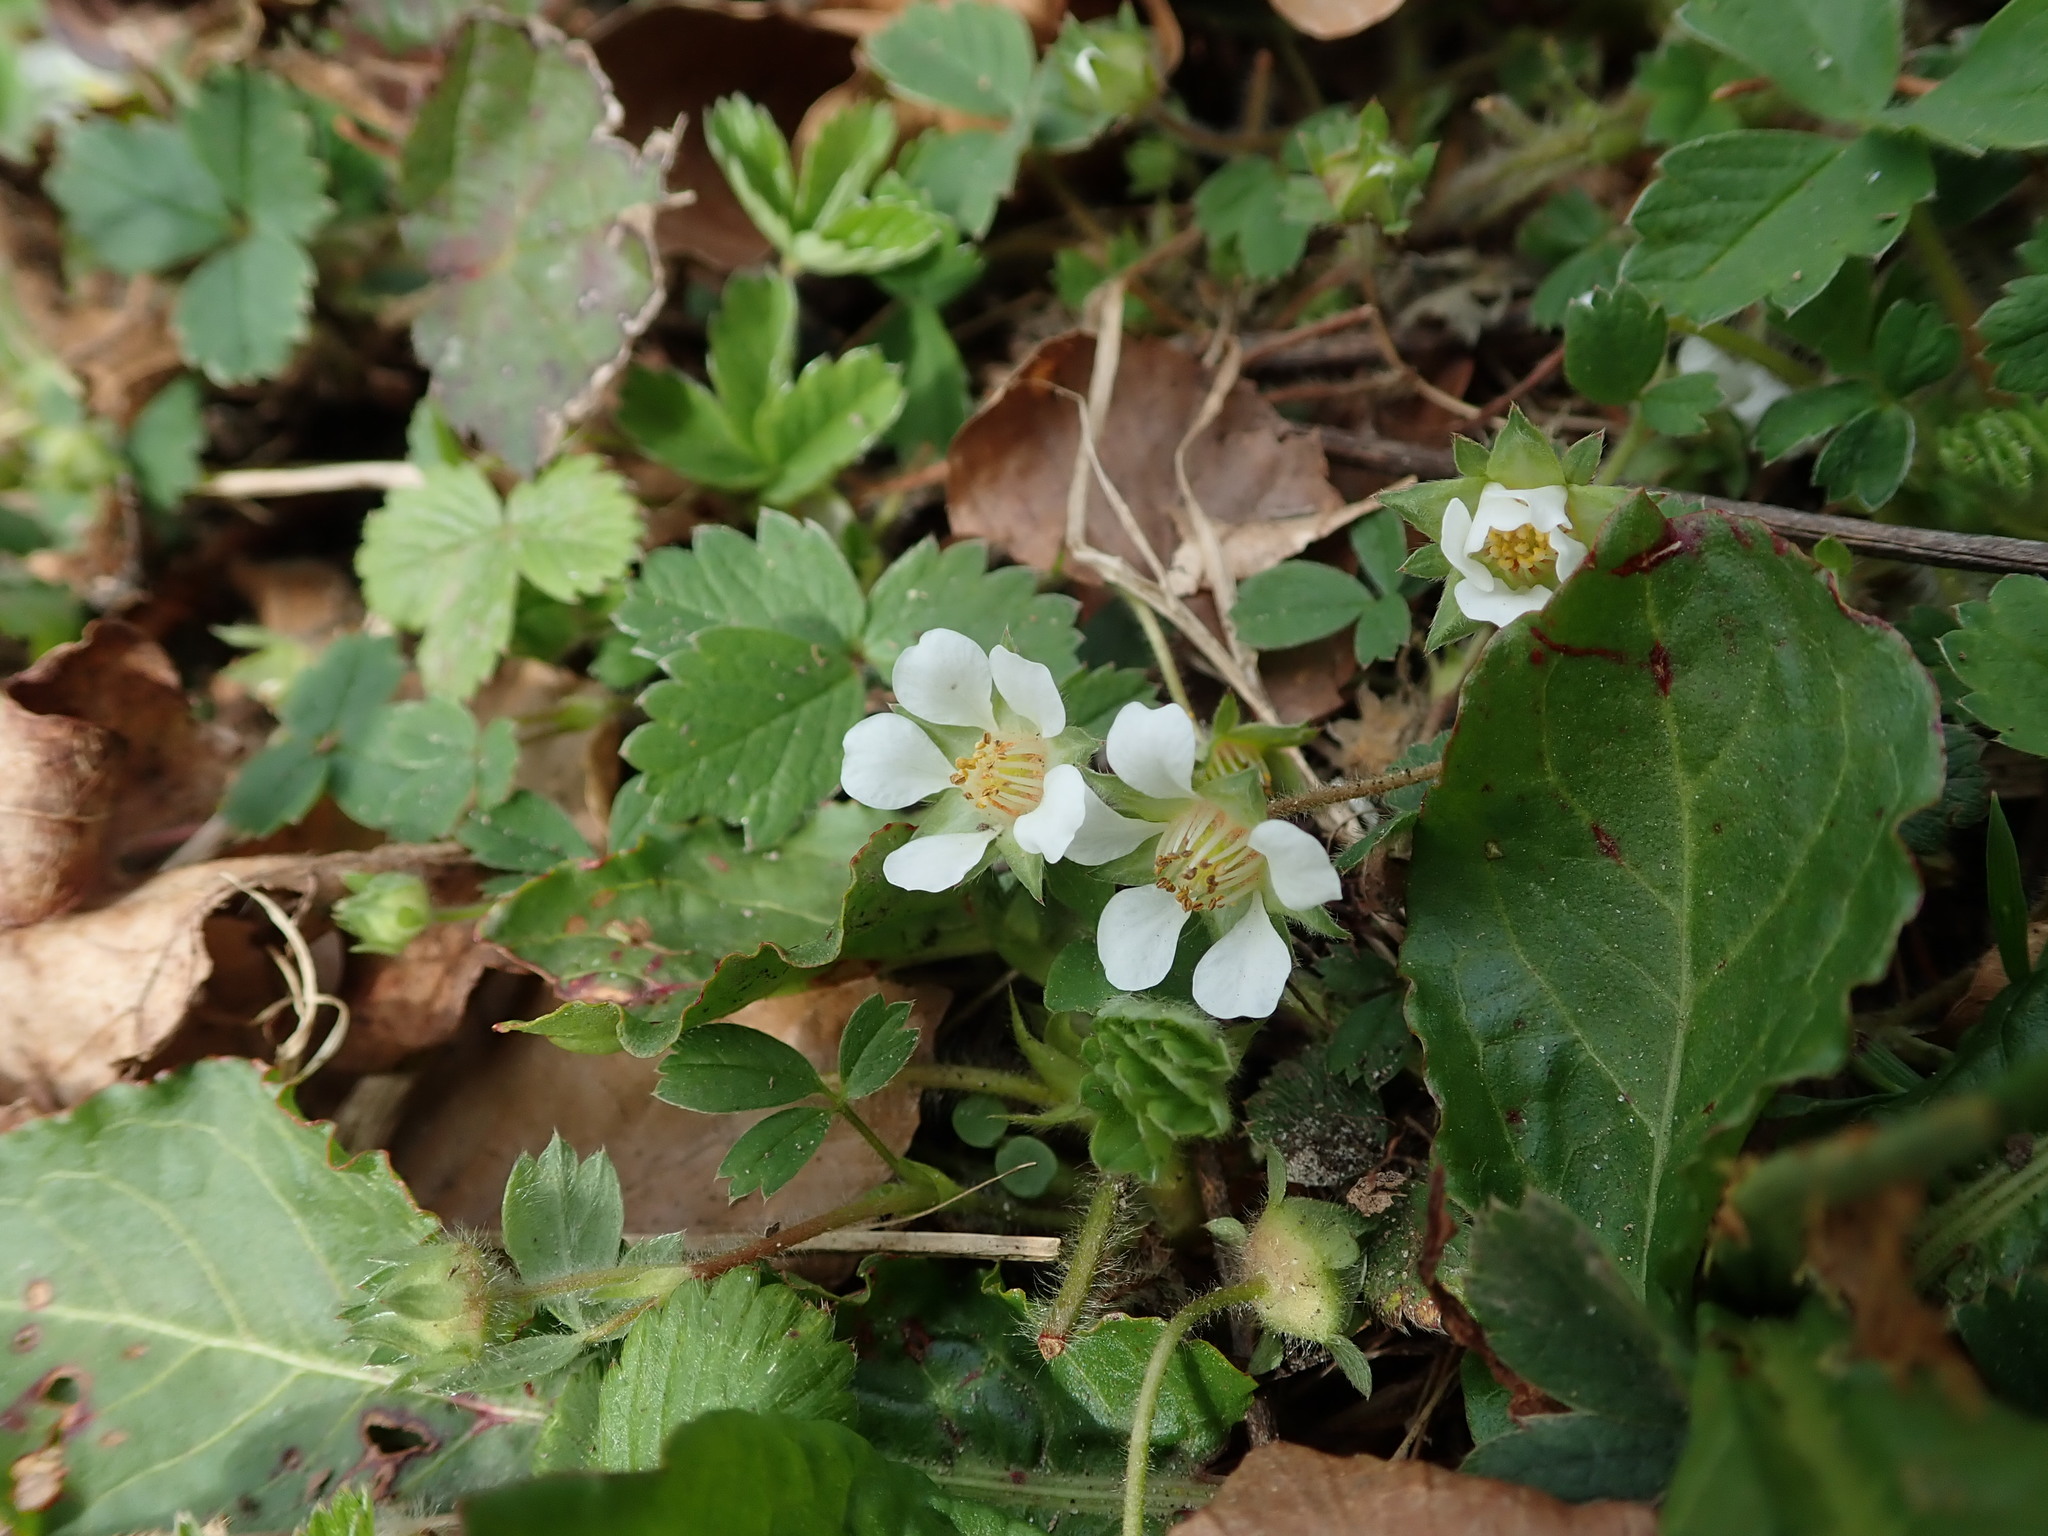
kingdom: Plantae
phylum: Tracheophyta
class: Magnoliopsida
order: Rosales
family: Rosaceae
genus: Potentilla
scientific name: Potentilla sterilis
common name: Barren strawberry
